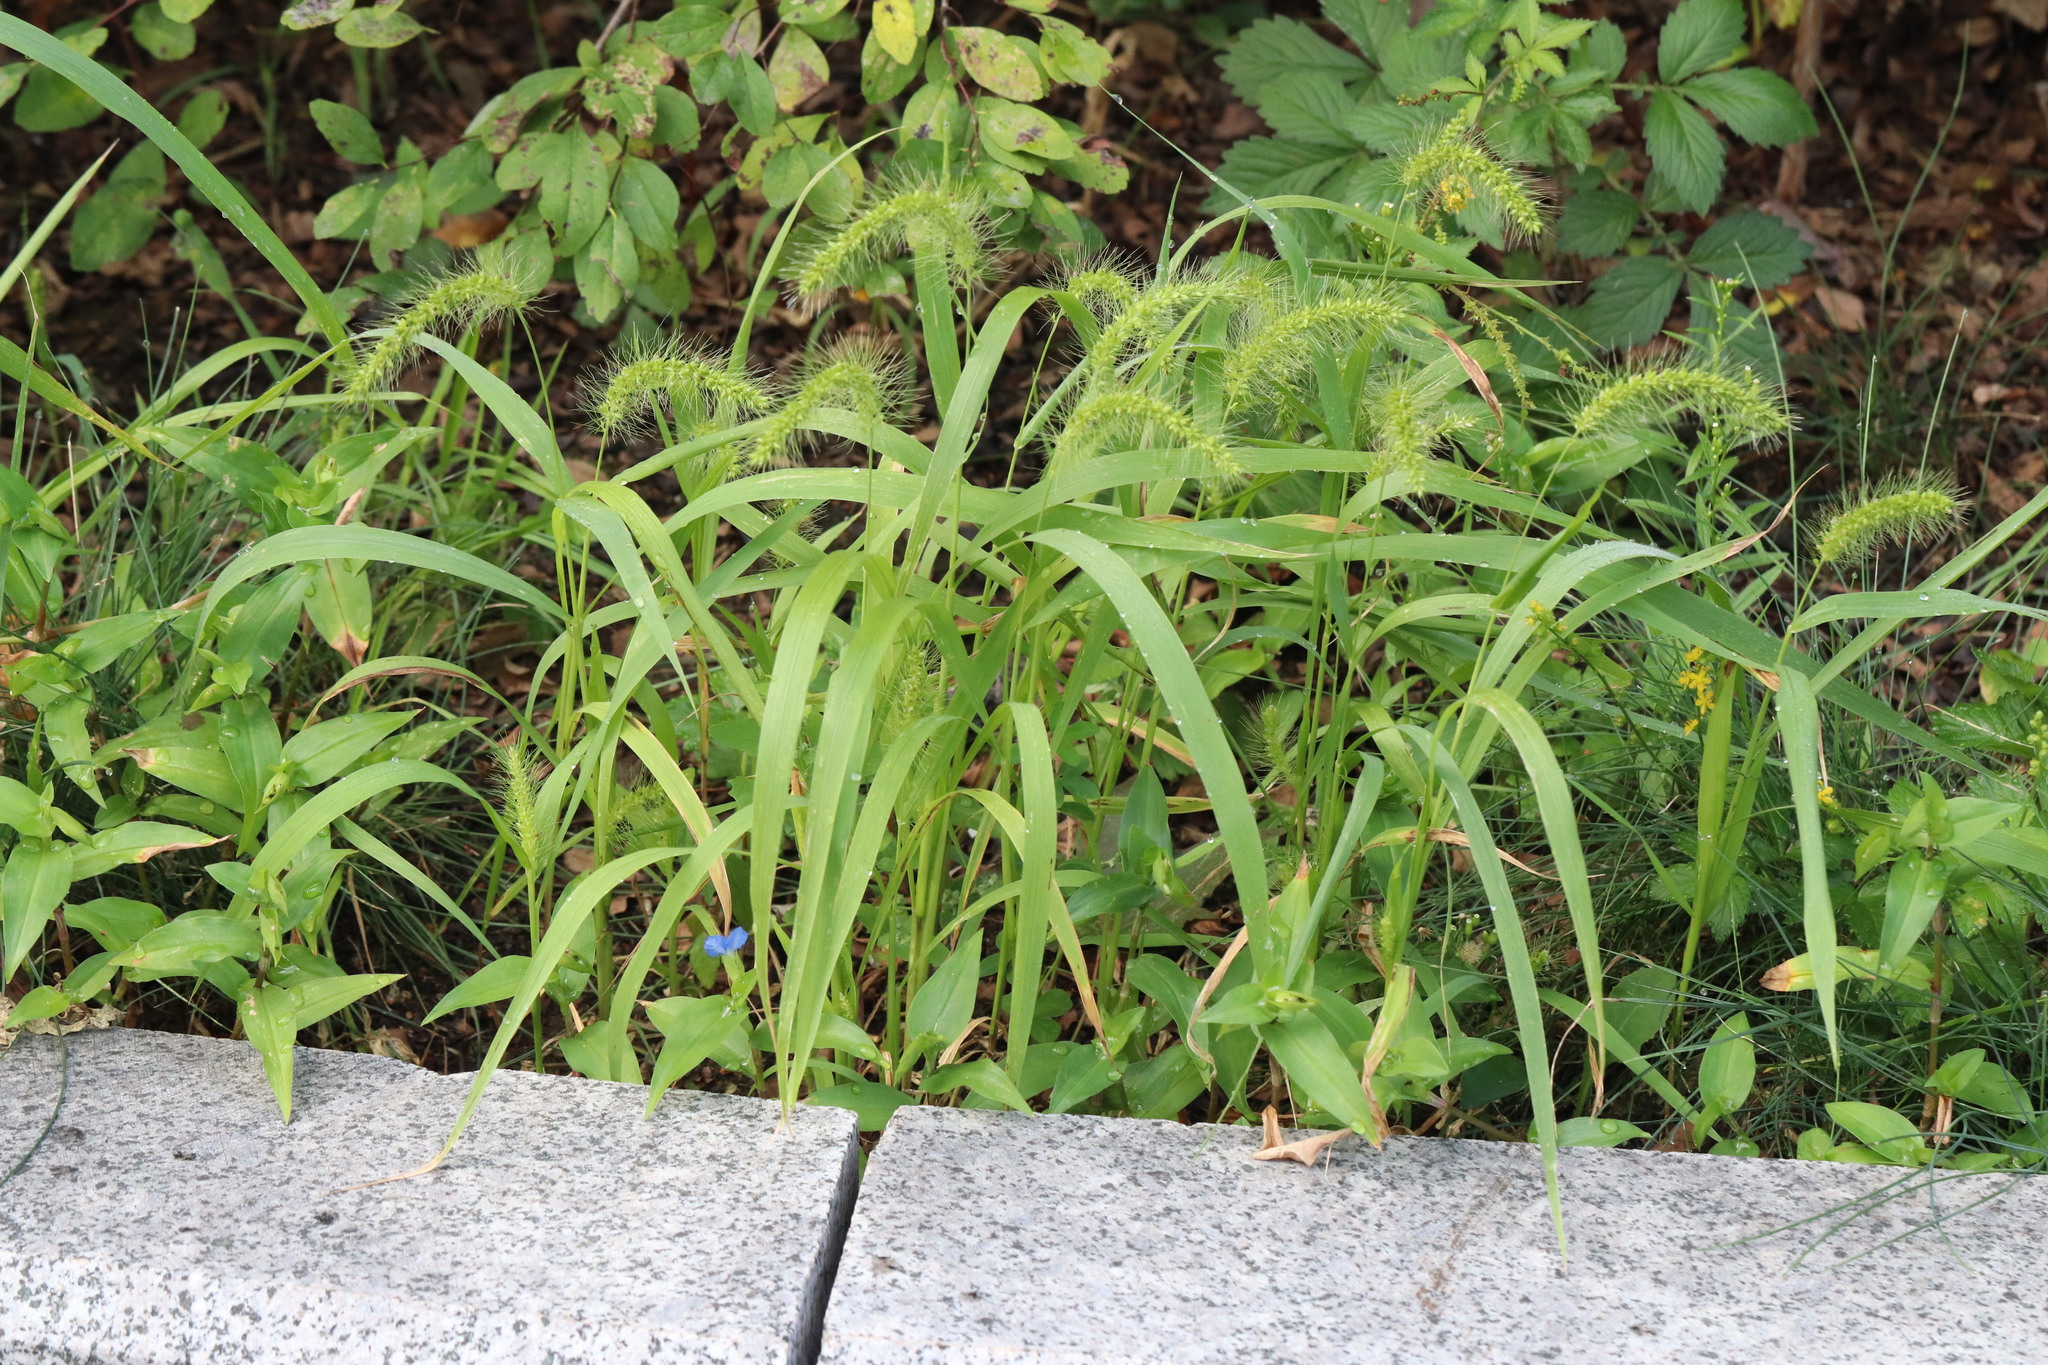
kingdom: Plantae
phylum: Tracheophyta
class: Liliopsida
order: Poales
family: Poaceae
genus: Setaria
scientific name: Setaria viridis
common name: Green bristlegrass
